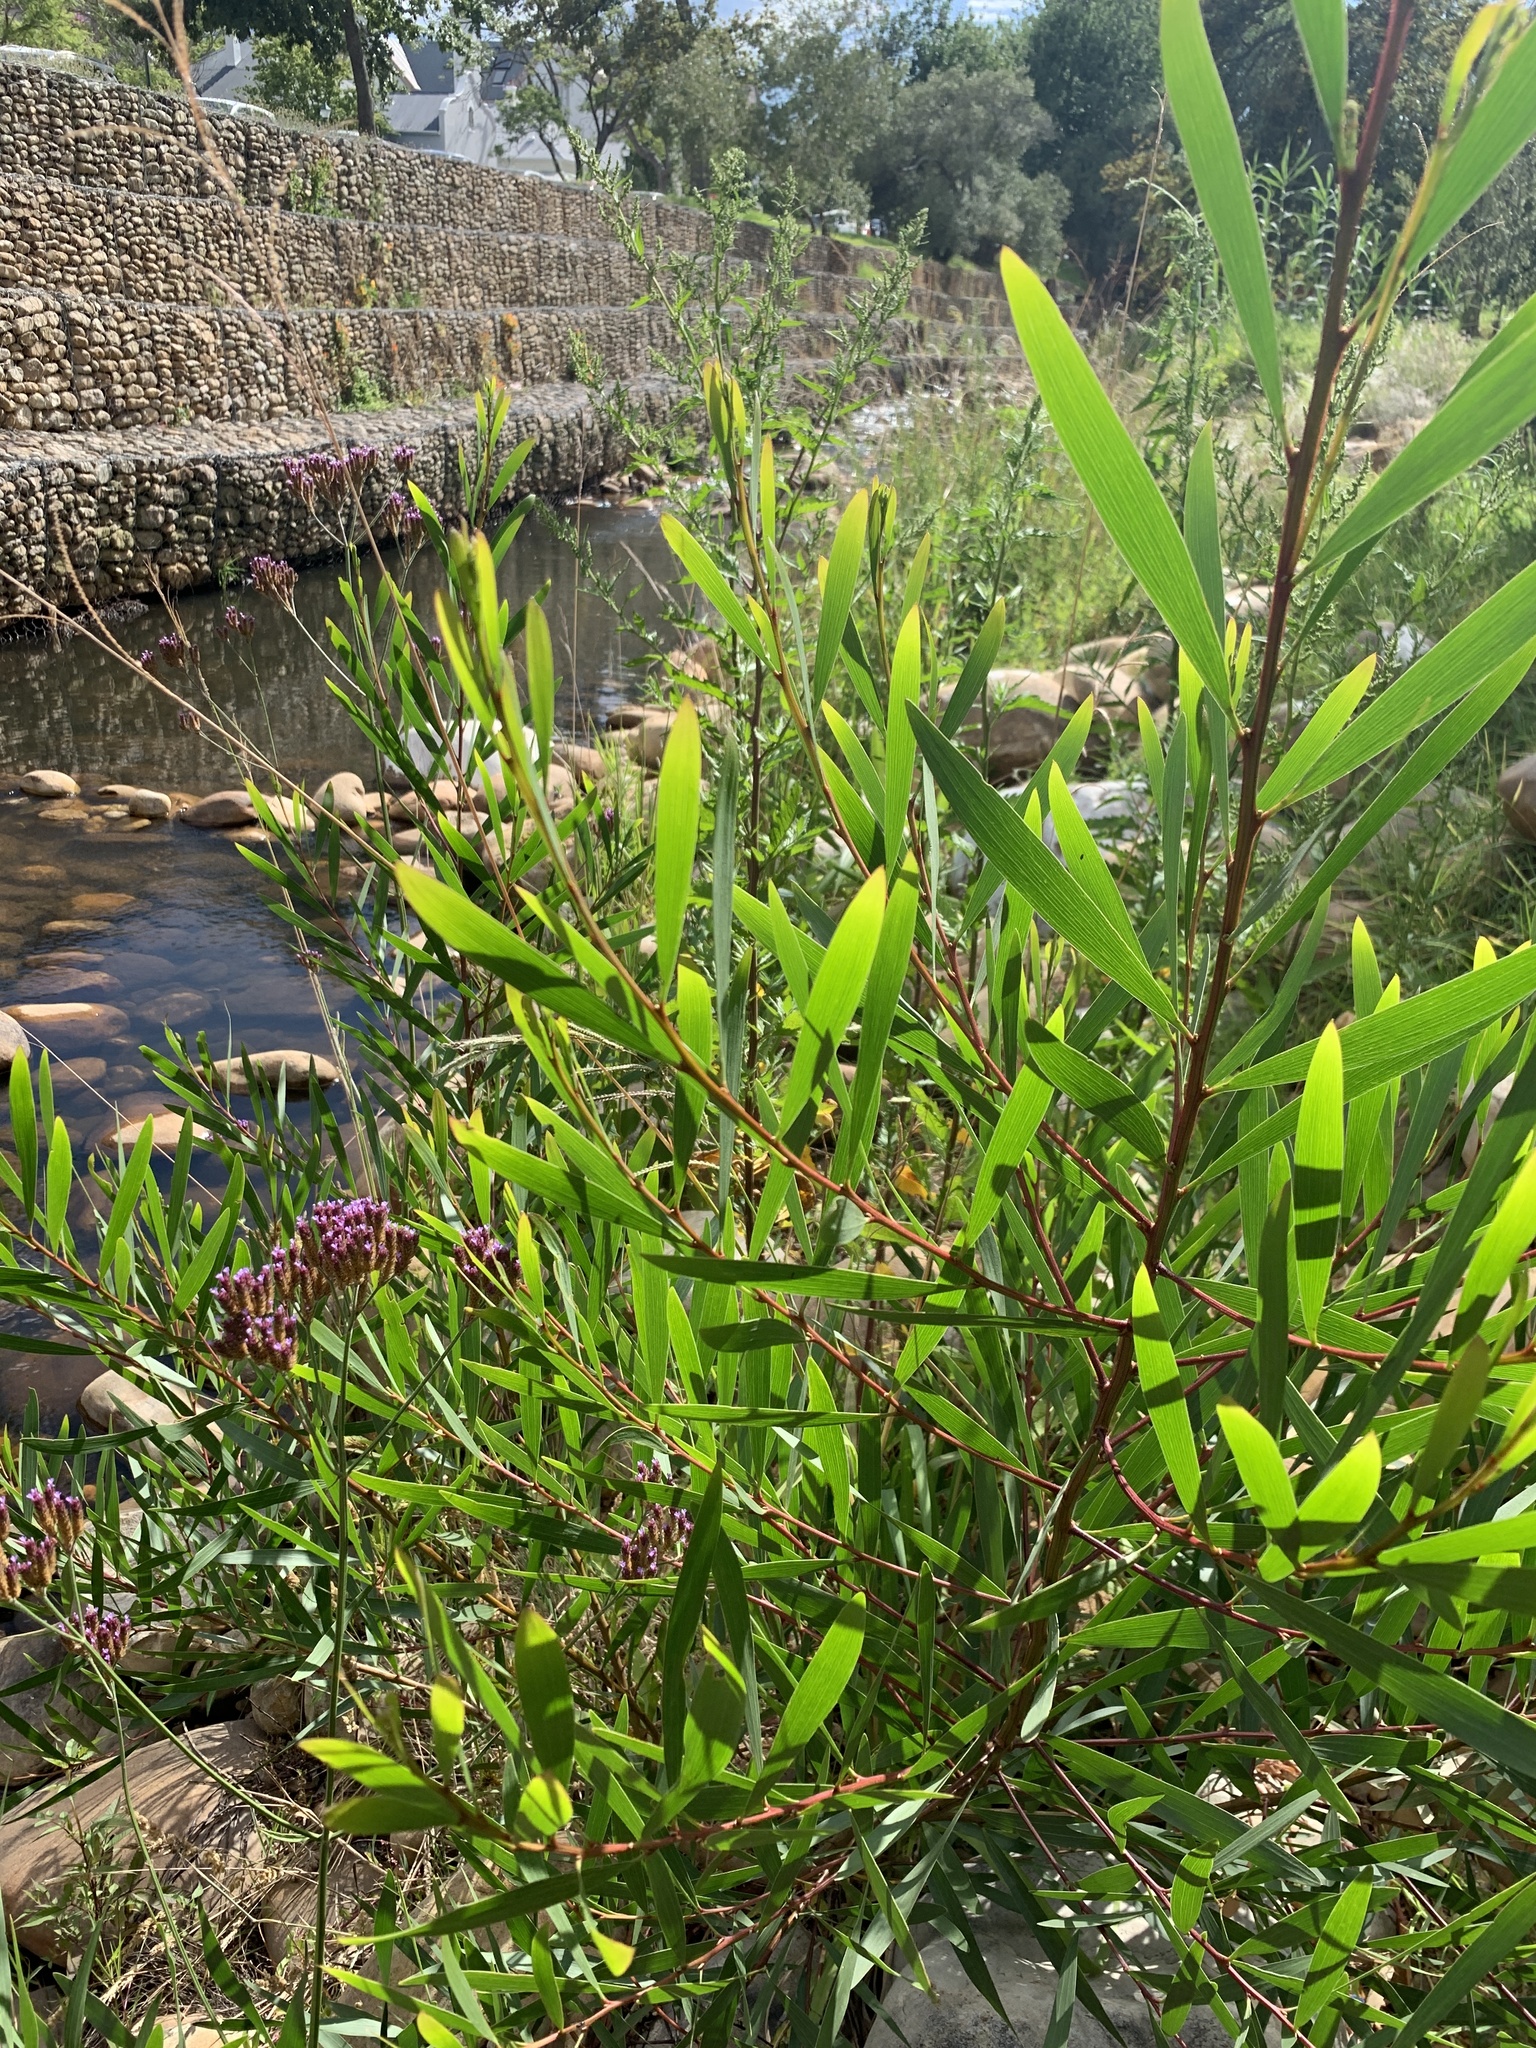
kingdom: Plantae
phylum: Tracheophyta
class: Magnoliopsida
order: Fabales
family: Fabaceae
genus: Acacia
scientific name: Acacia longifolia
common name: Sydney golden wattle
